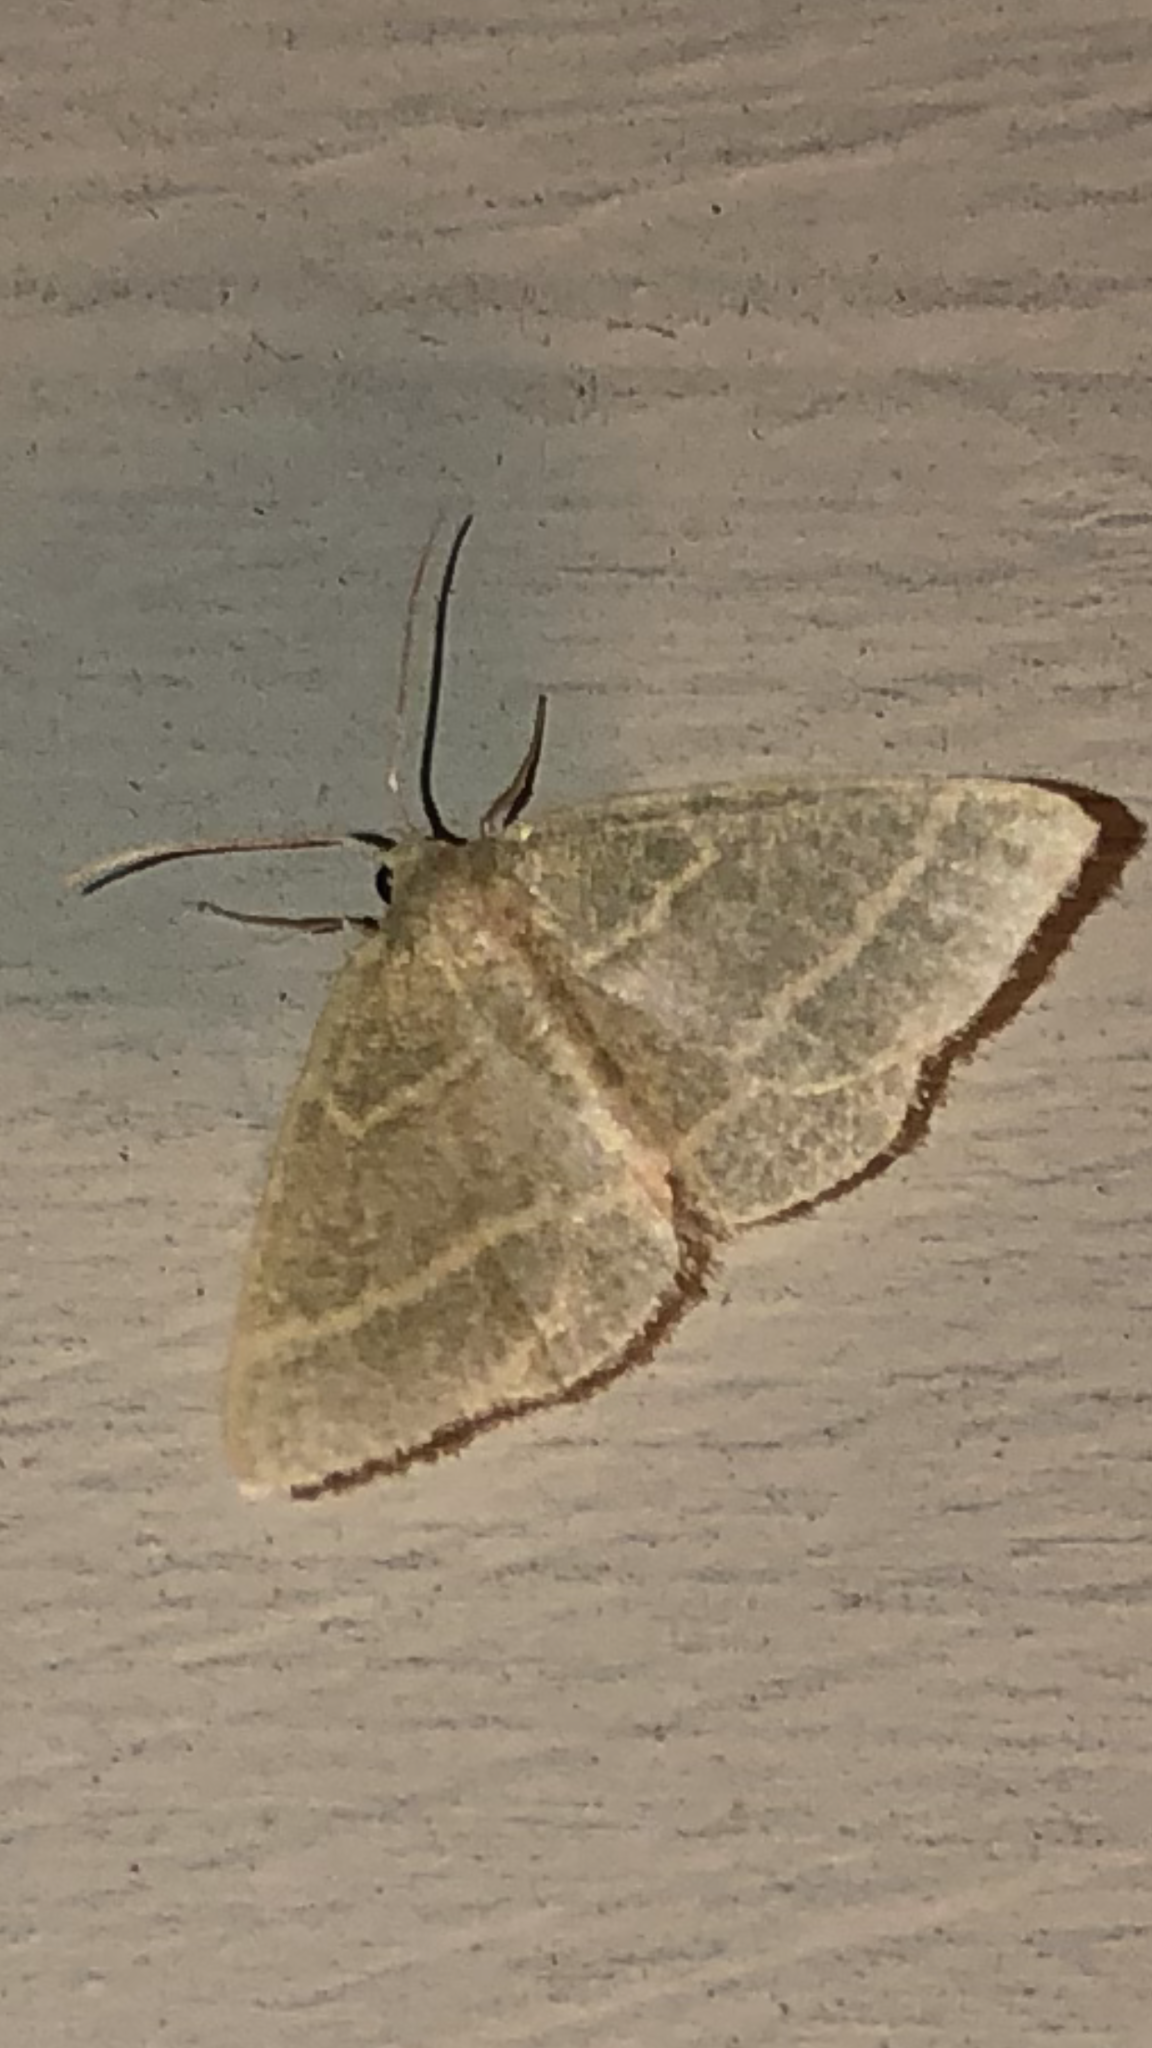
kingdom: Animalia
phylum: Arthropoda
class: Insecta
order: Lepidoptera
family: Geometridae
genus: Chlorochlamys
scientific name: Chlorochlamys chloroleucaria
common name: Blackberry looper
